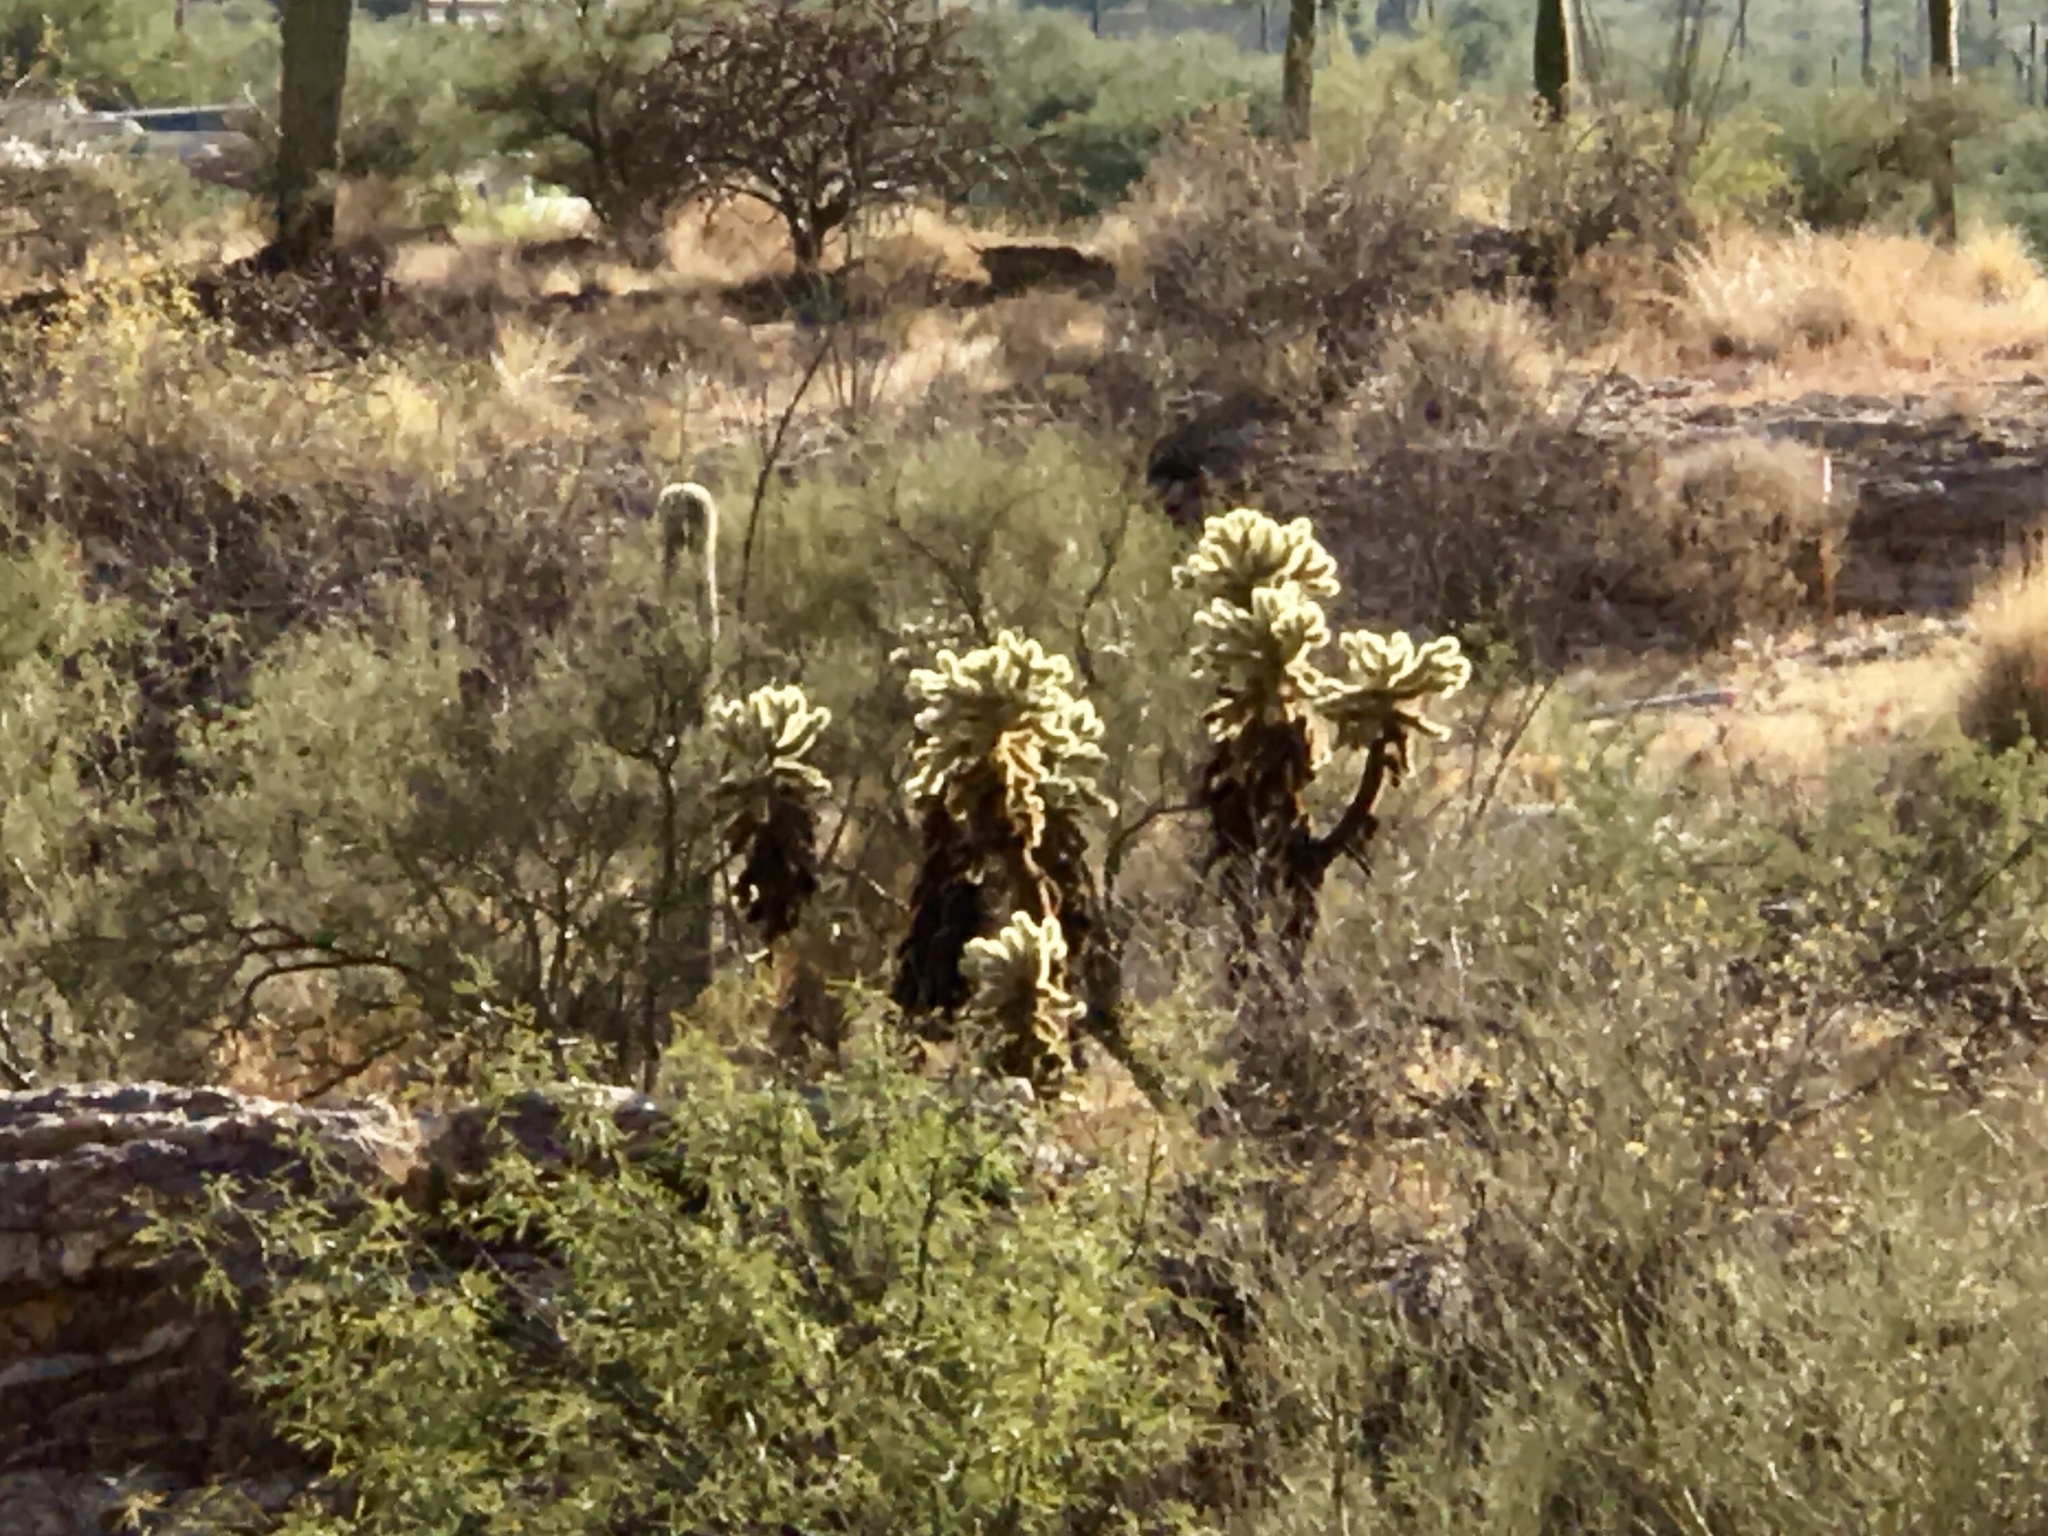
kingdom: Plantae
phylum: Tracheophyta
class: Magnoliopsida
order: Caryophyllales
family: Cactaceae
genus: Cylindropuntia
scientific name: Cylindropuntia fosbergii
